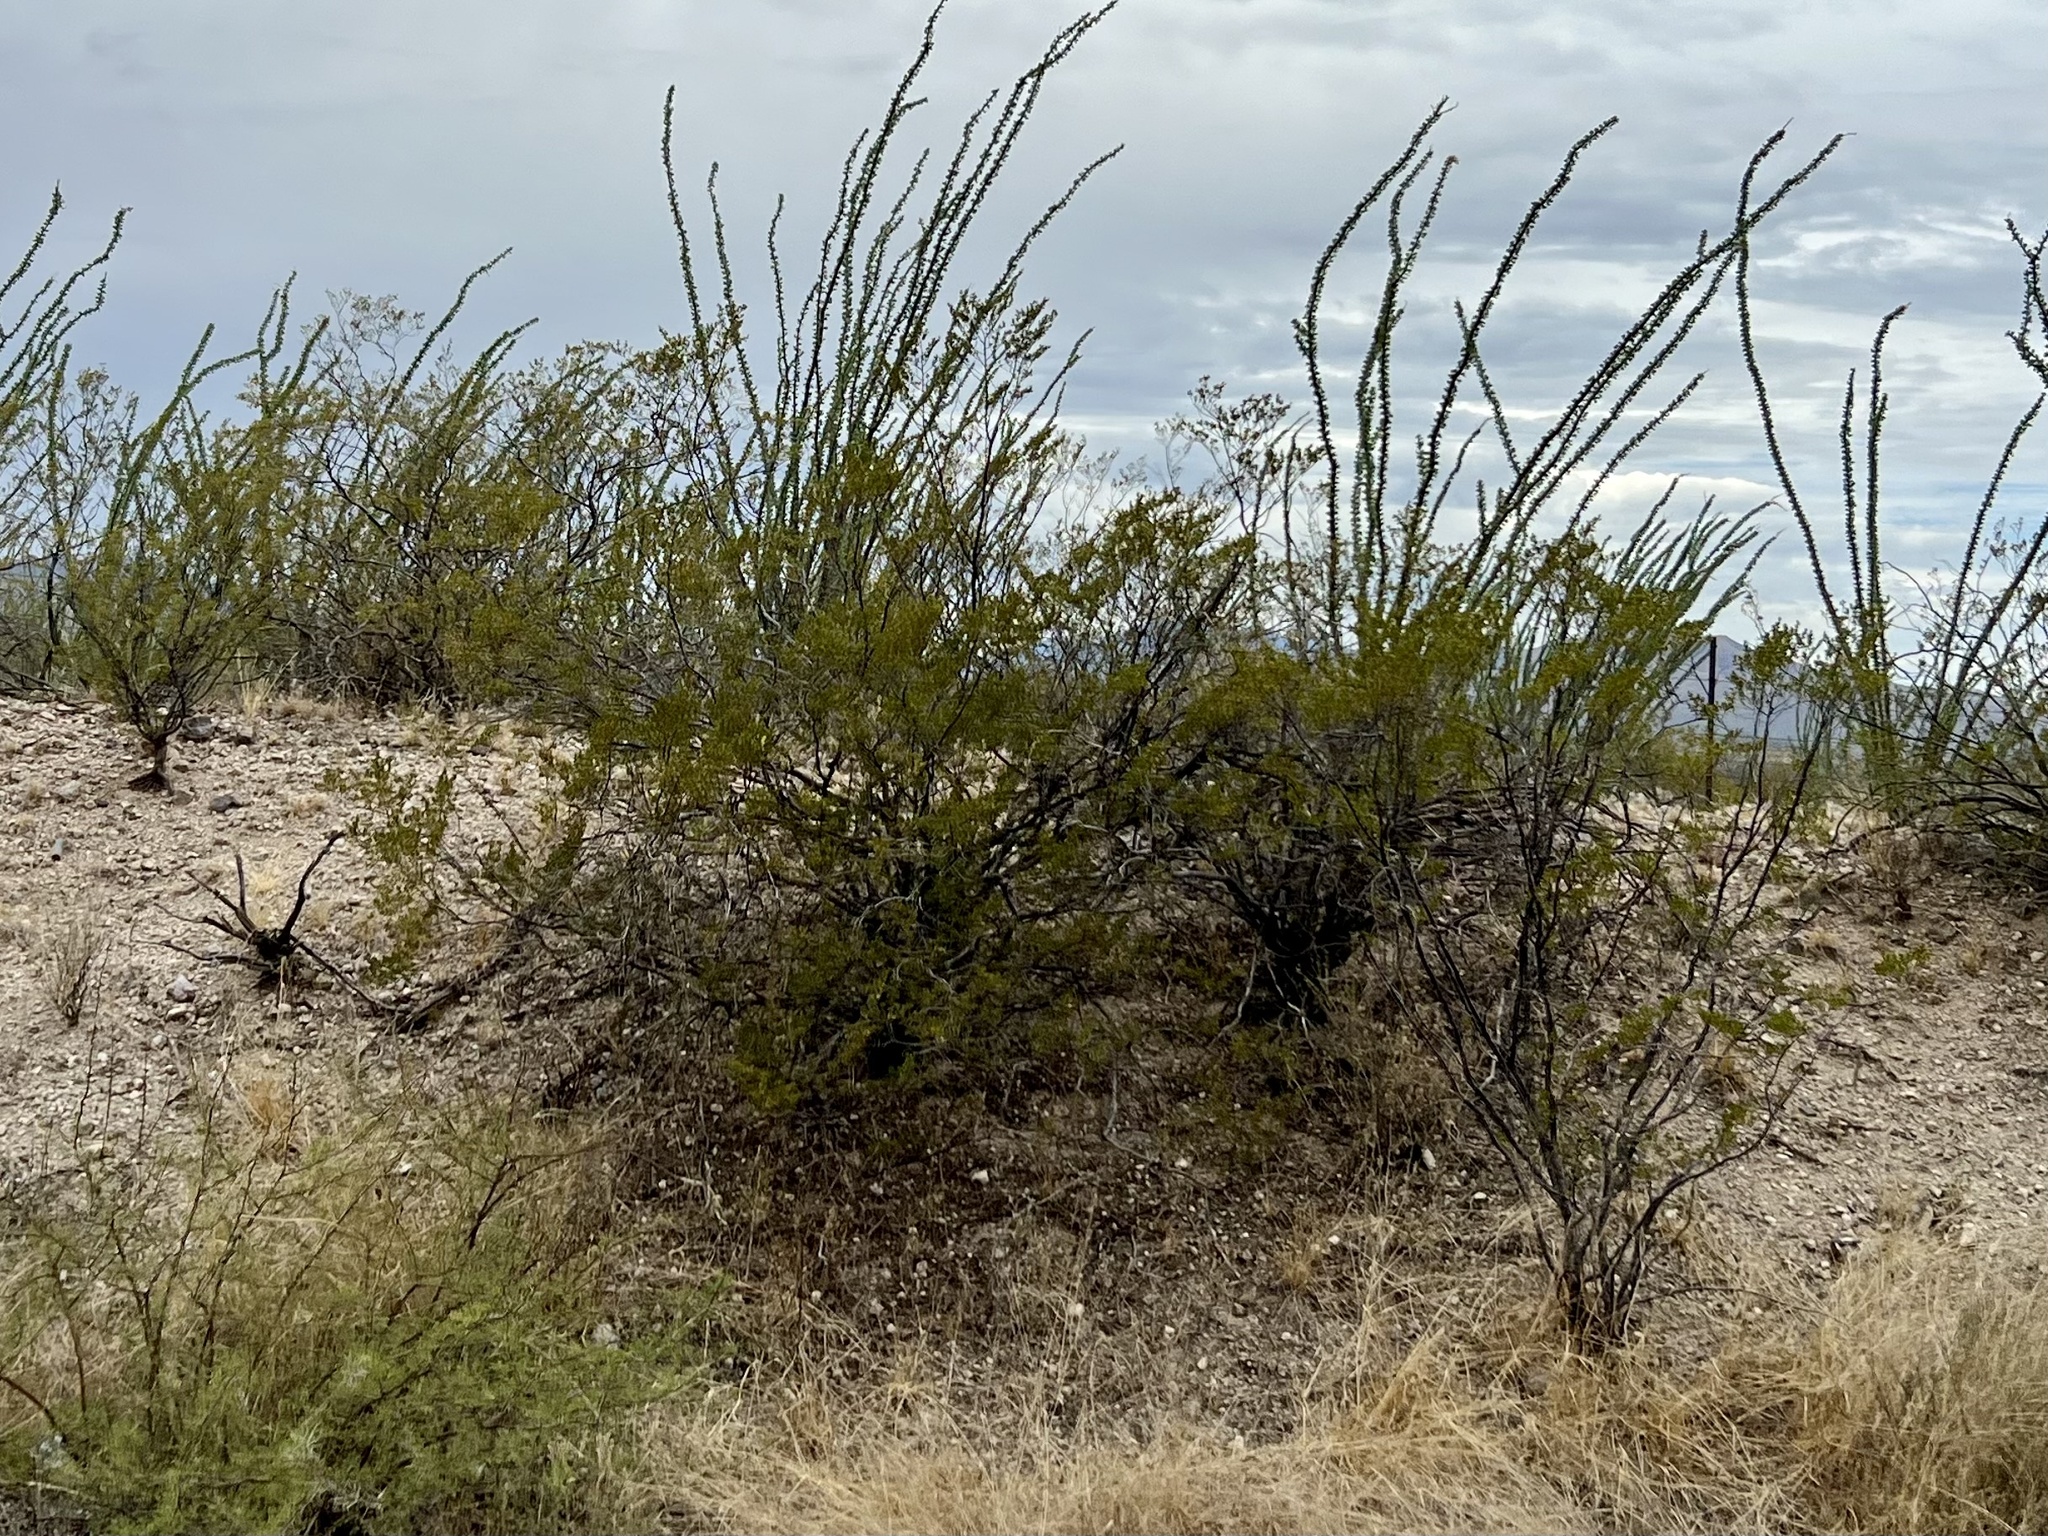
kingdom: Plantae
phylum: Tracheophyta
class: Magnoliopsida
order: Zygophyllales
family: Zygophyllaceae
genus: Larrea
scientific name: Larrea tridentata
